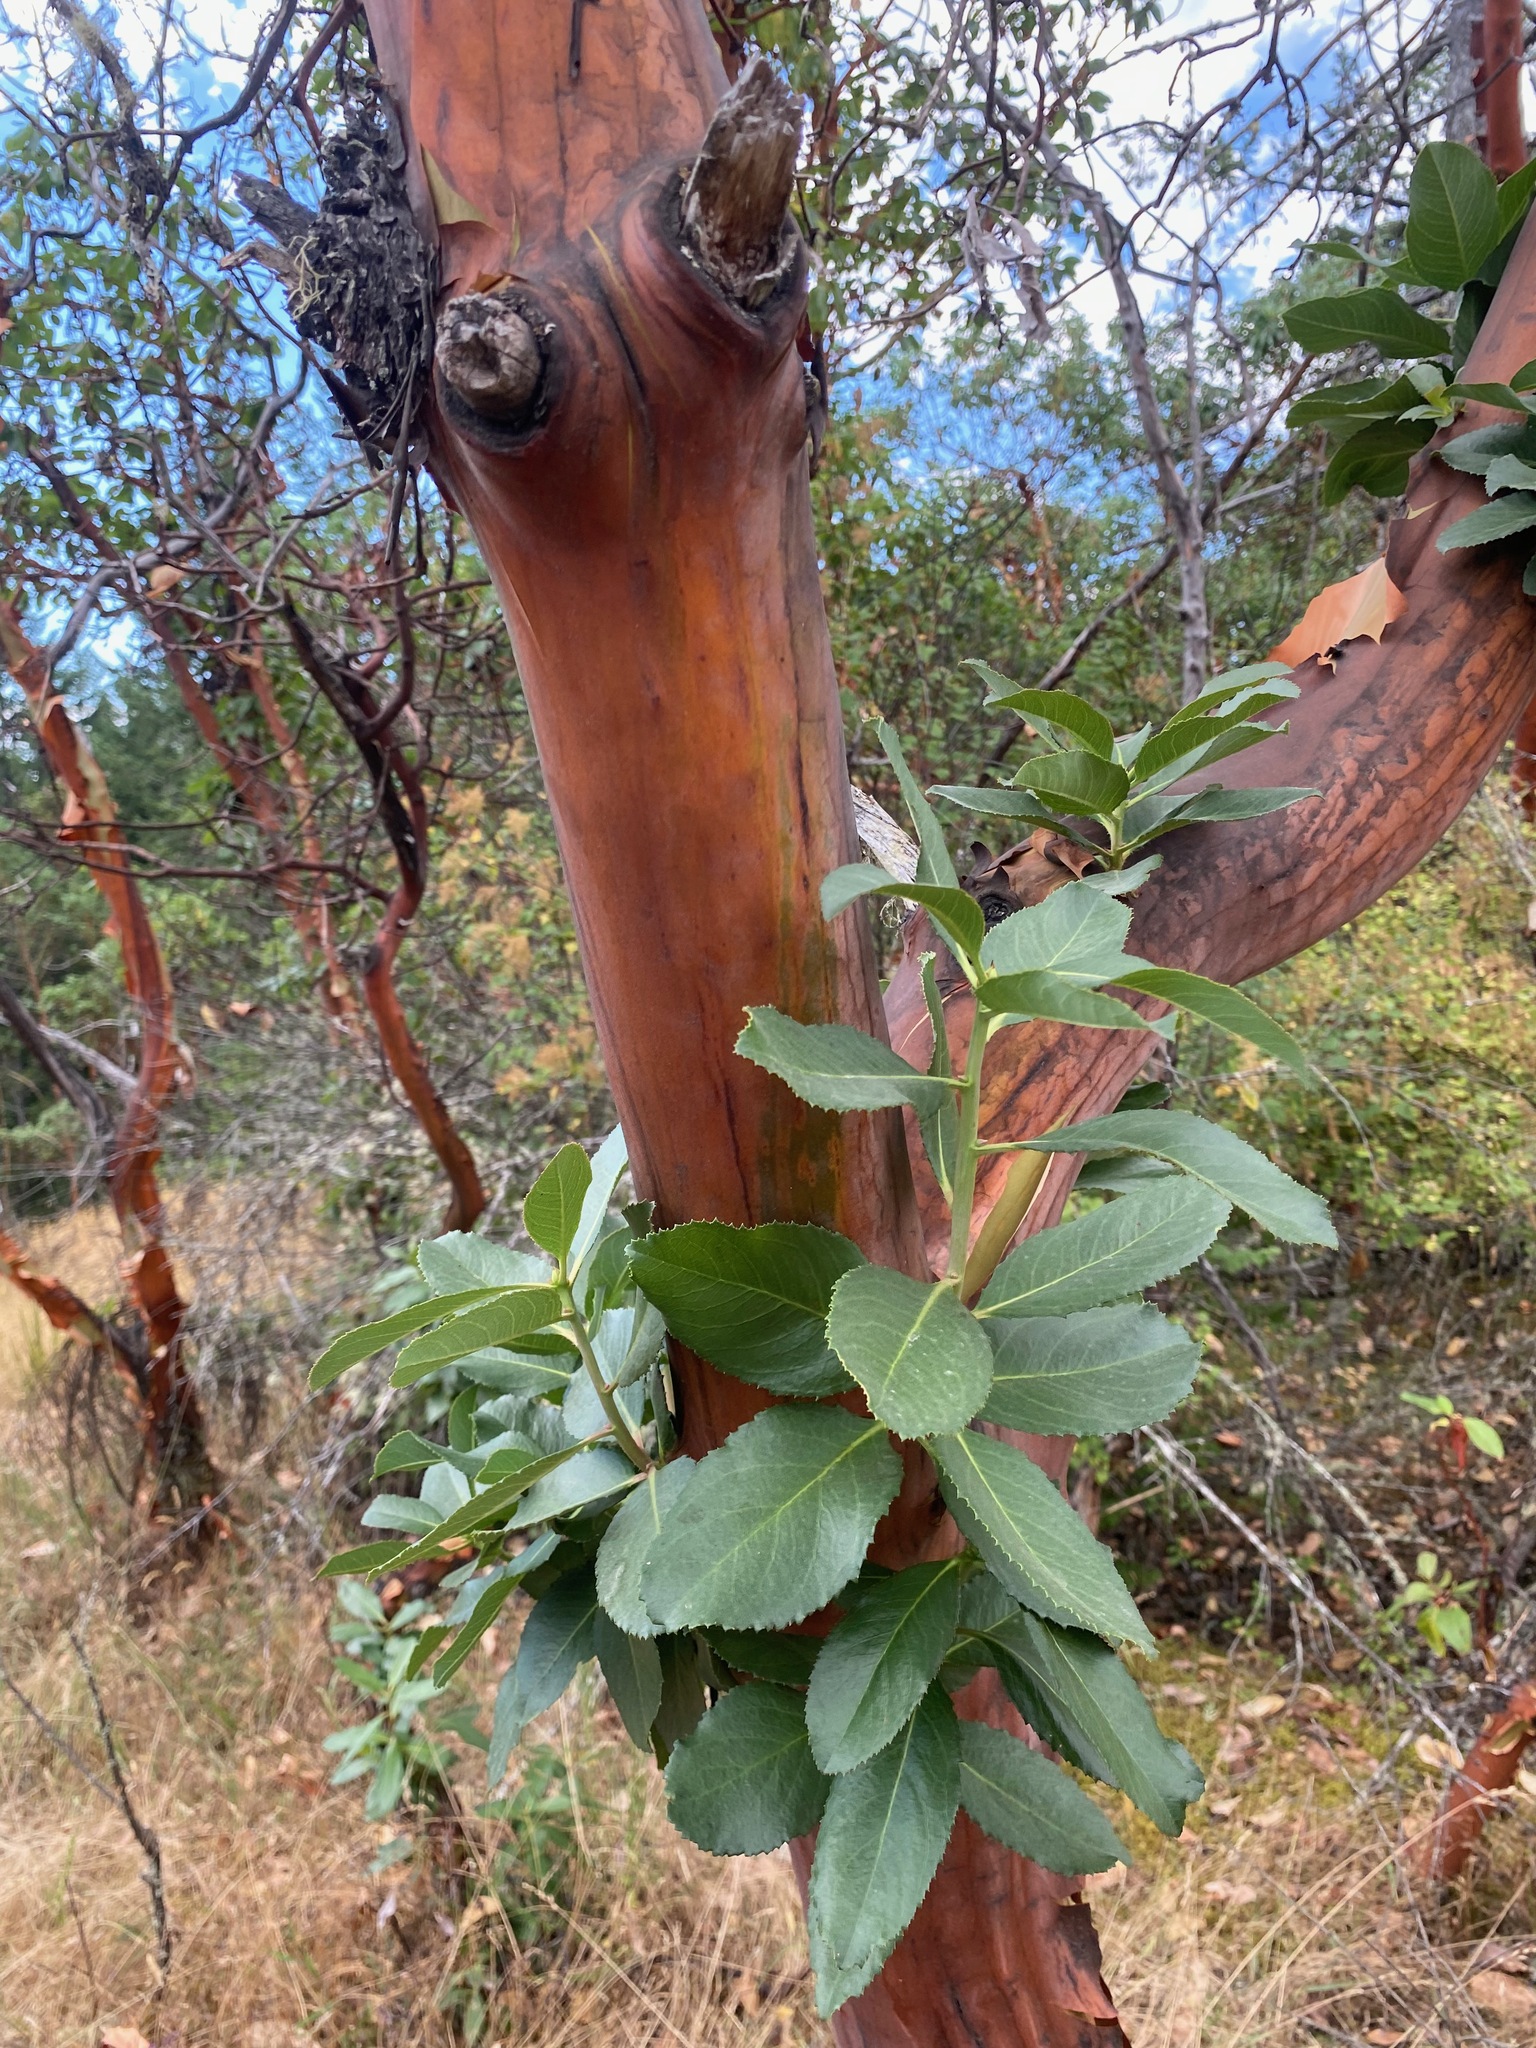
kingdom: Plantae
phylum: Tracheophyta
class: Magnoliopsida
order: Ericales
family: Ericaceae
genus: Arbutus
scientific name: Arbutus menziesii
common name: Pacific madrone
